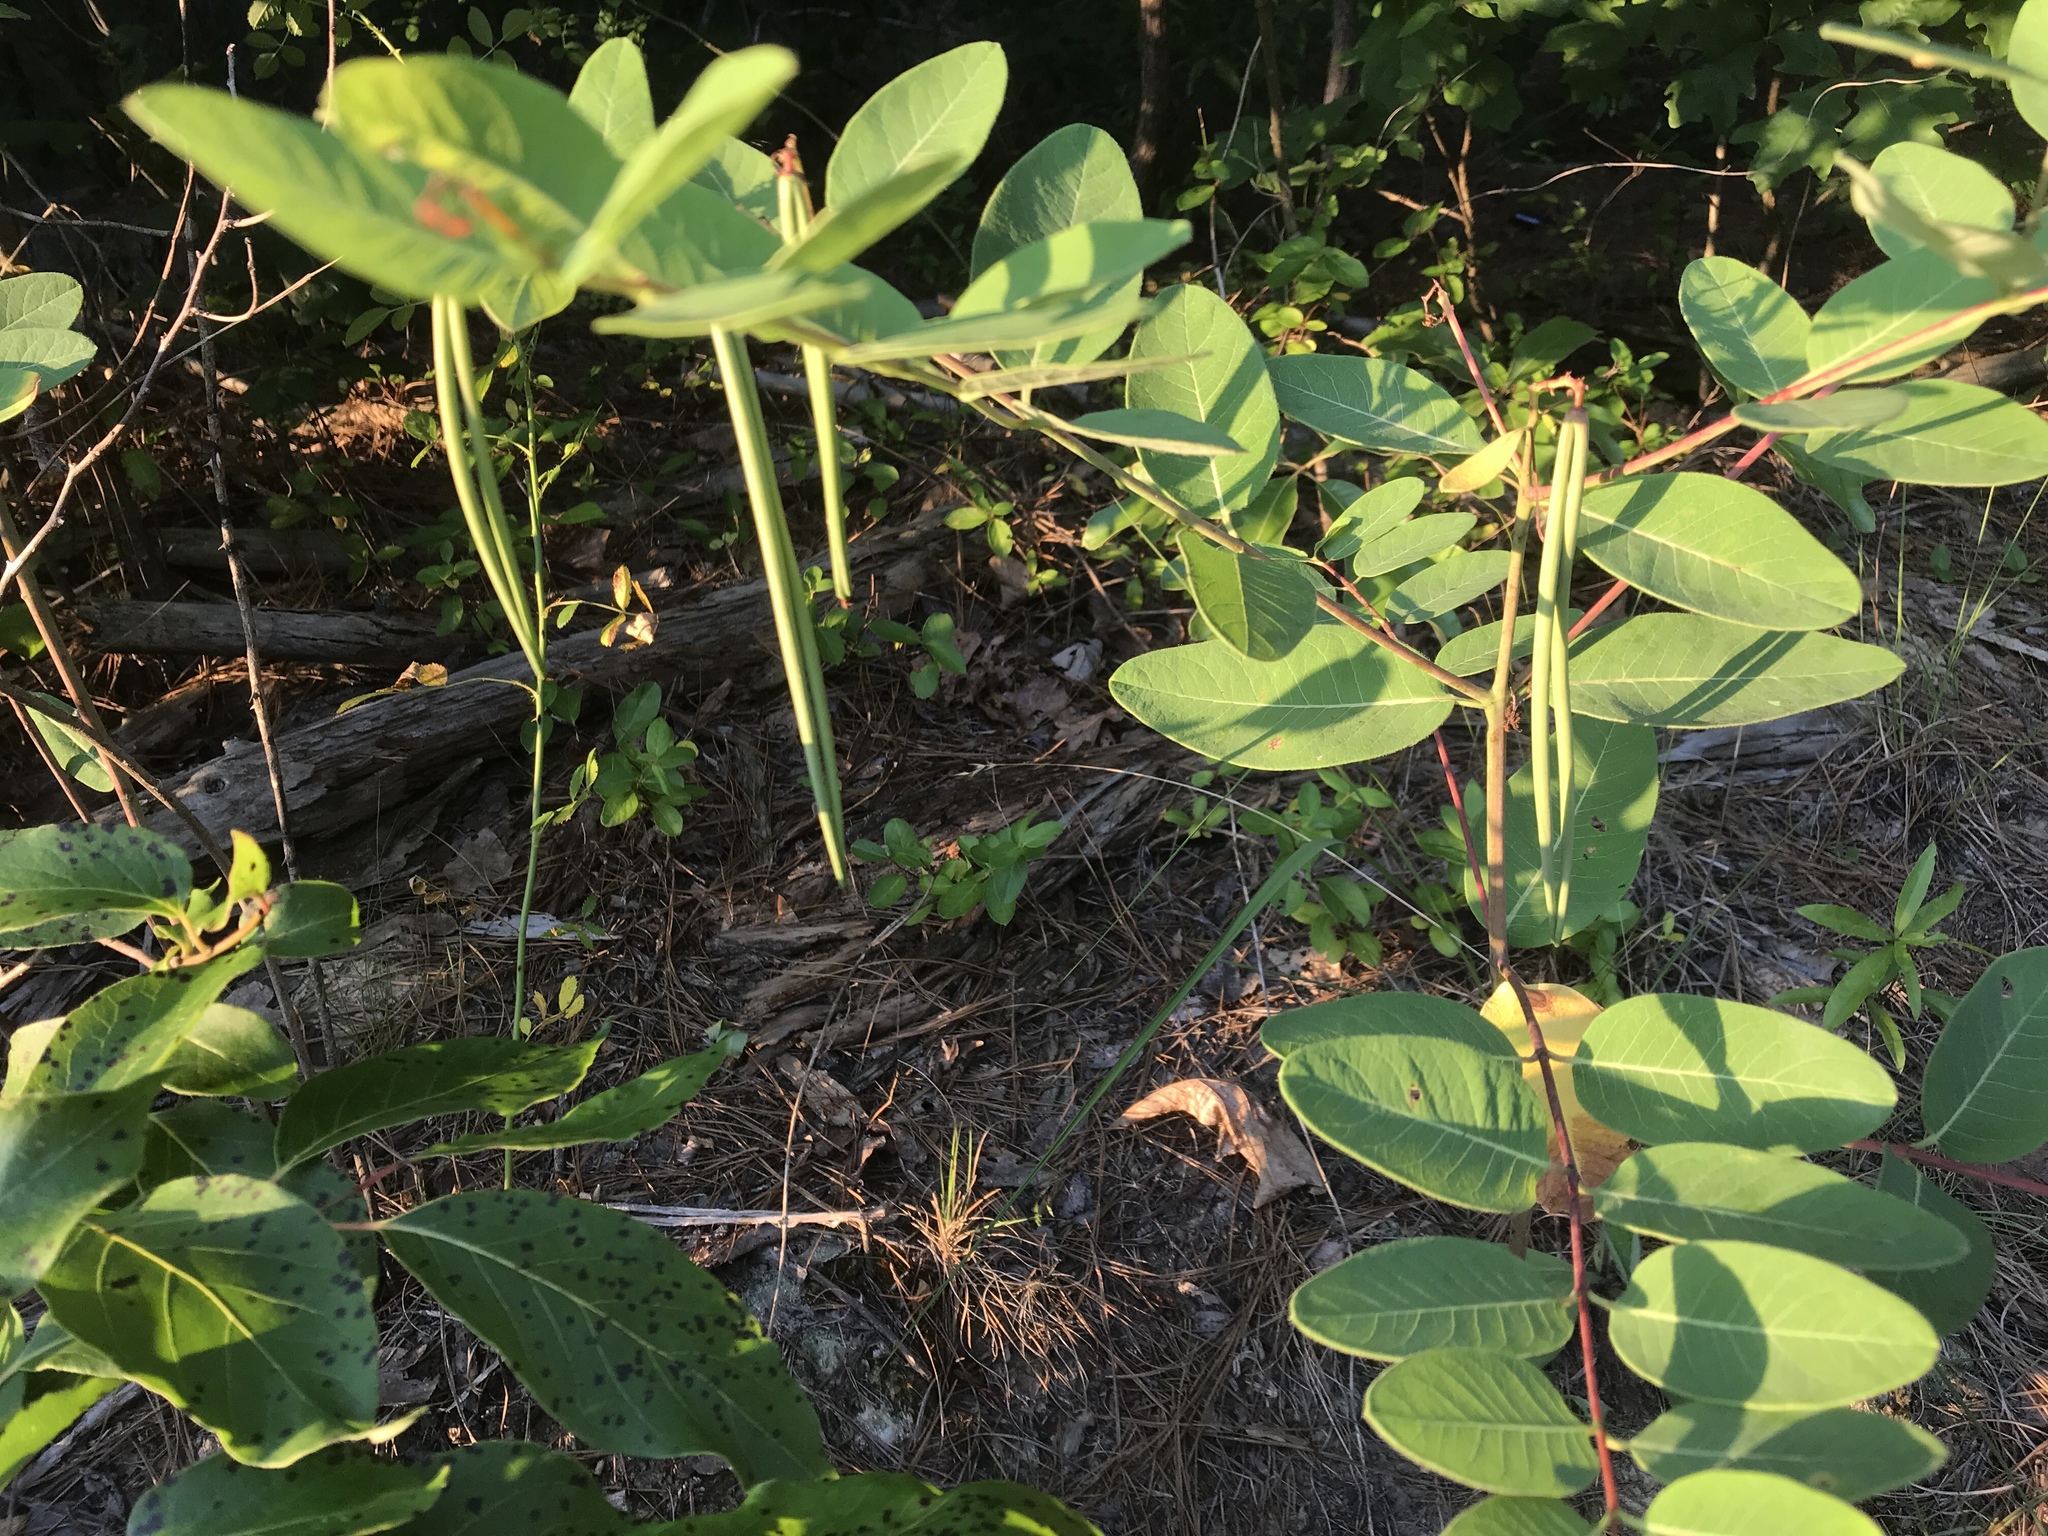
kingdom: Plantae
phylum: Tracheophyta
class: Magnoliopsida
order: Gentianales
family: Apocynaceae
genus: Apocynum
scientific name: Apocynum cannabinum
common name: Hemp dogbane
